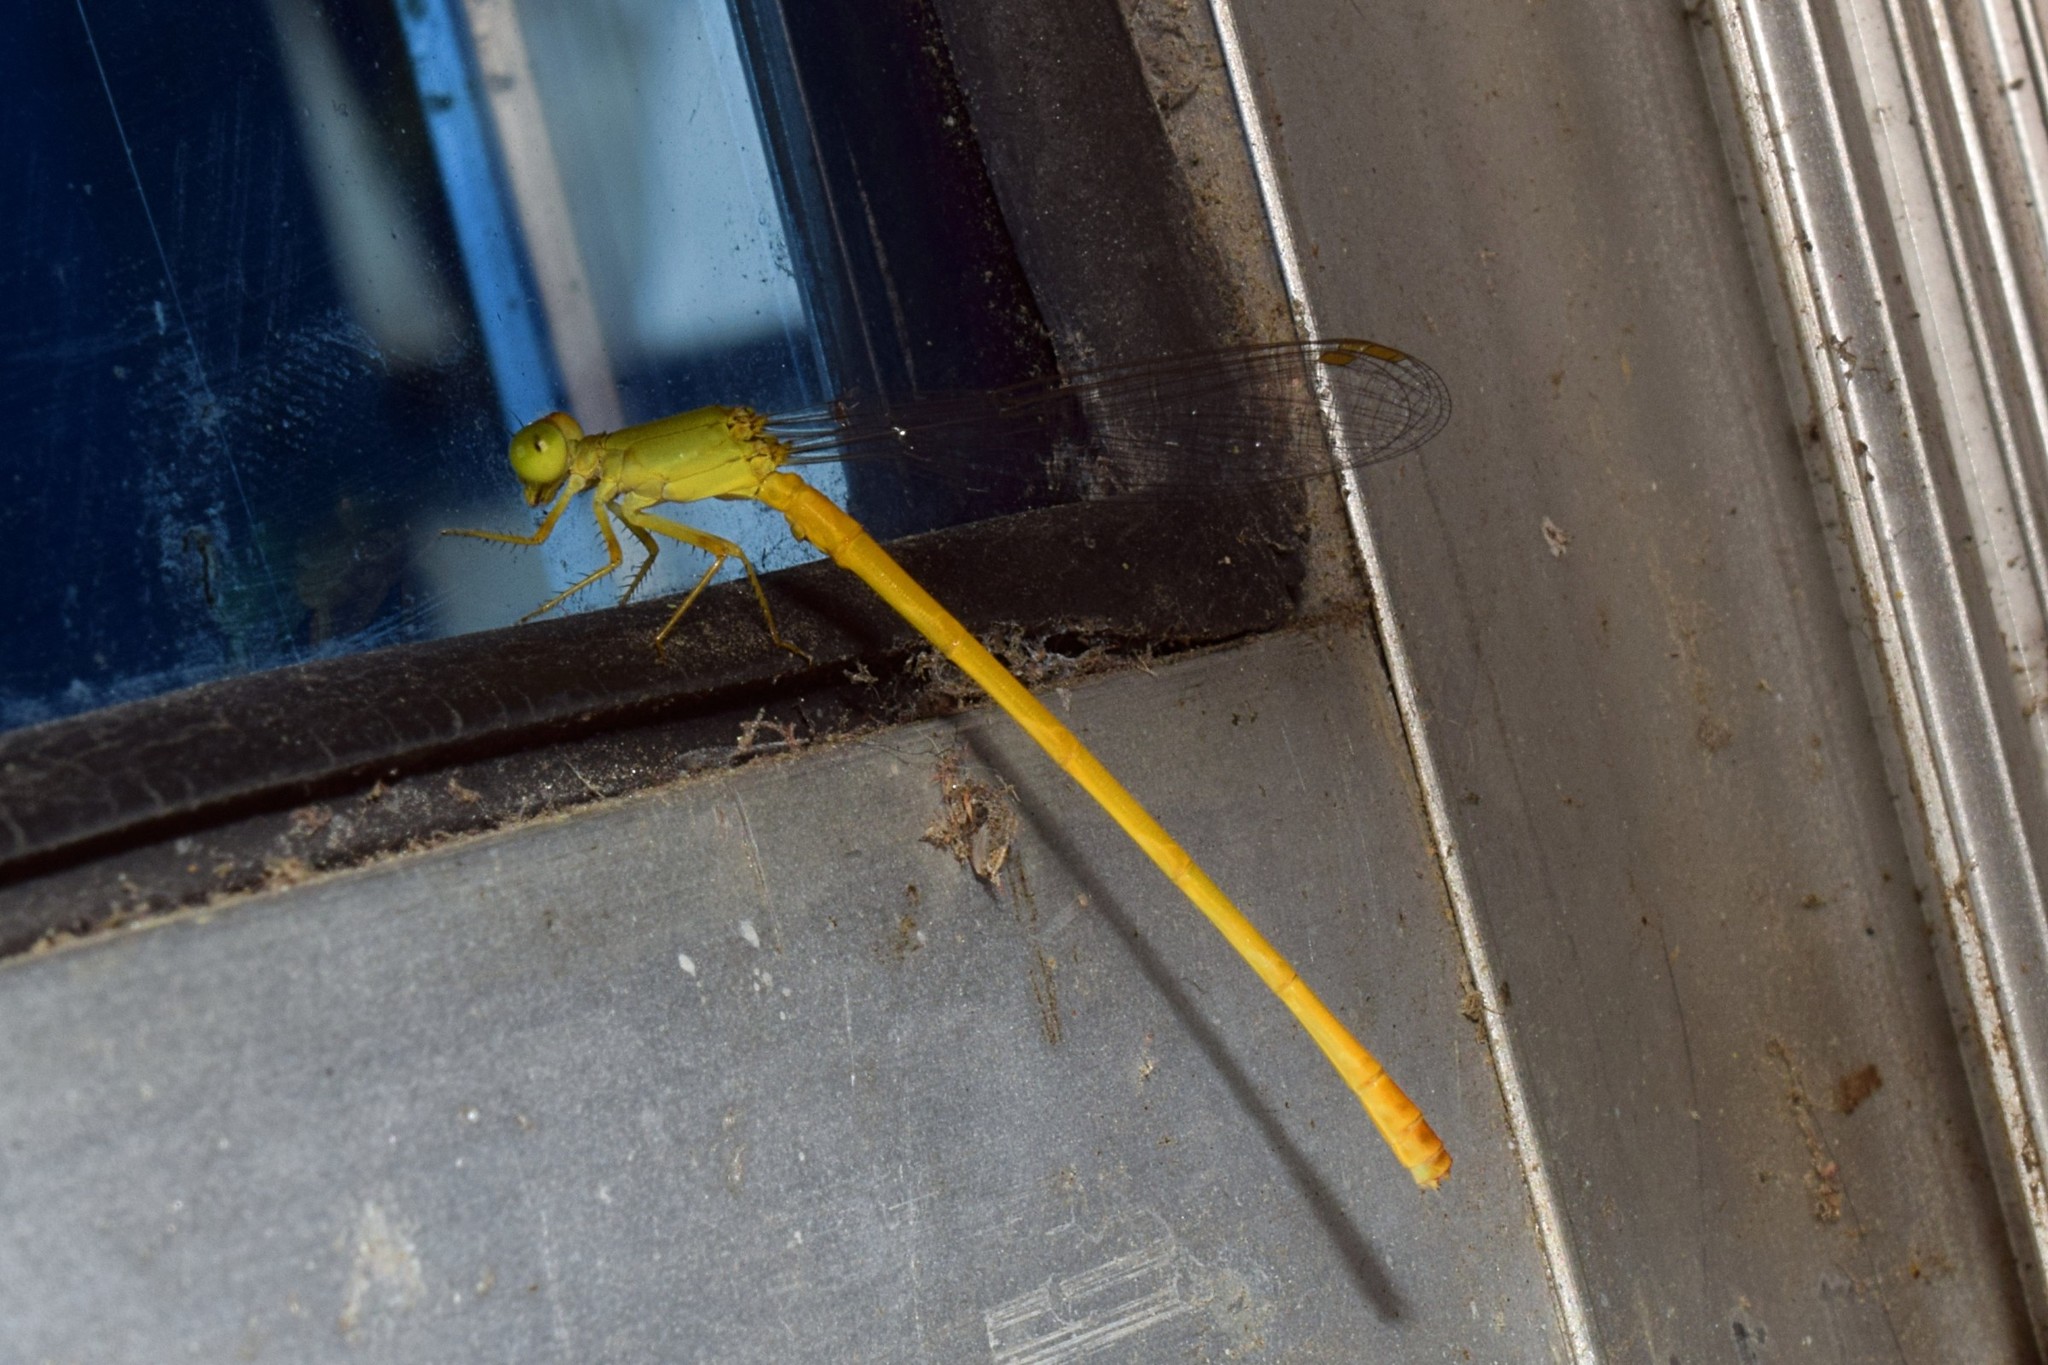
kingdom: Animalia
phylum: Arthropoda
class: Insecta
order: Odonata
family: Coenagrionidae
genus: Ceriagrion
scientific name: Ceriagrion coromandelianum
